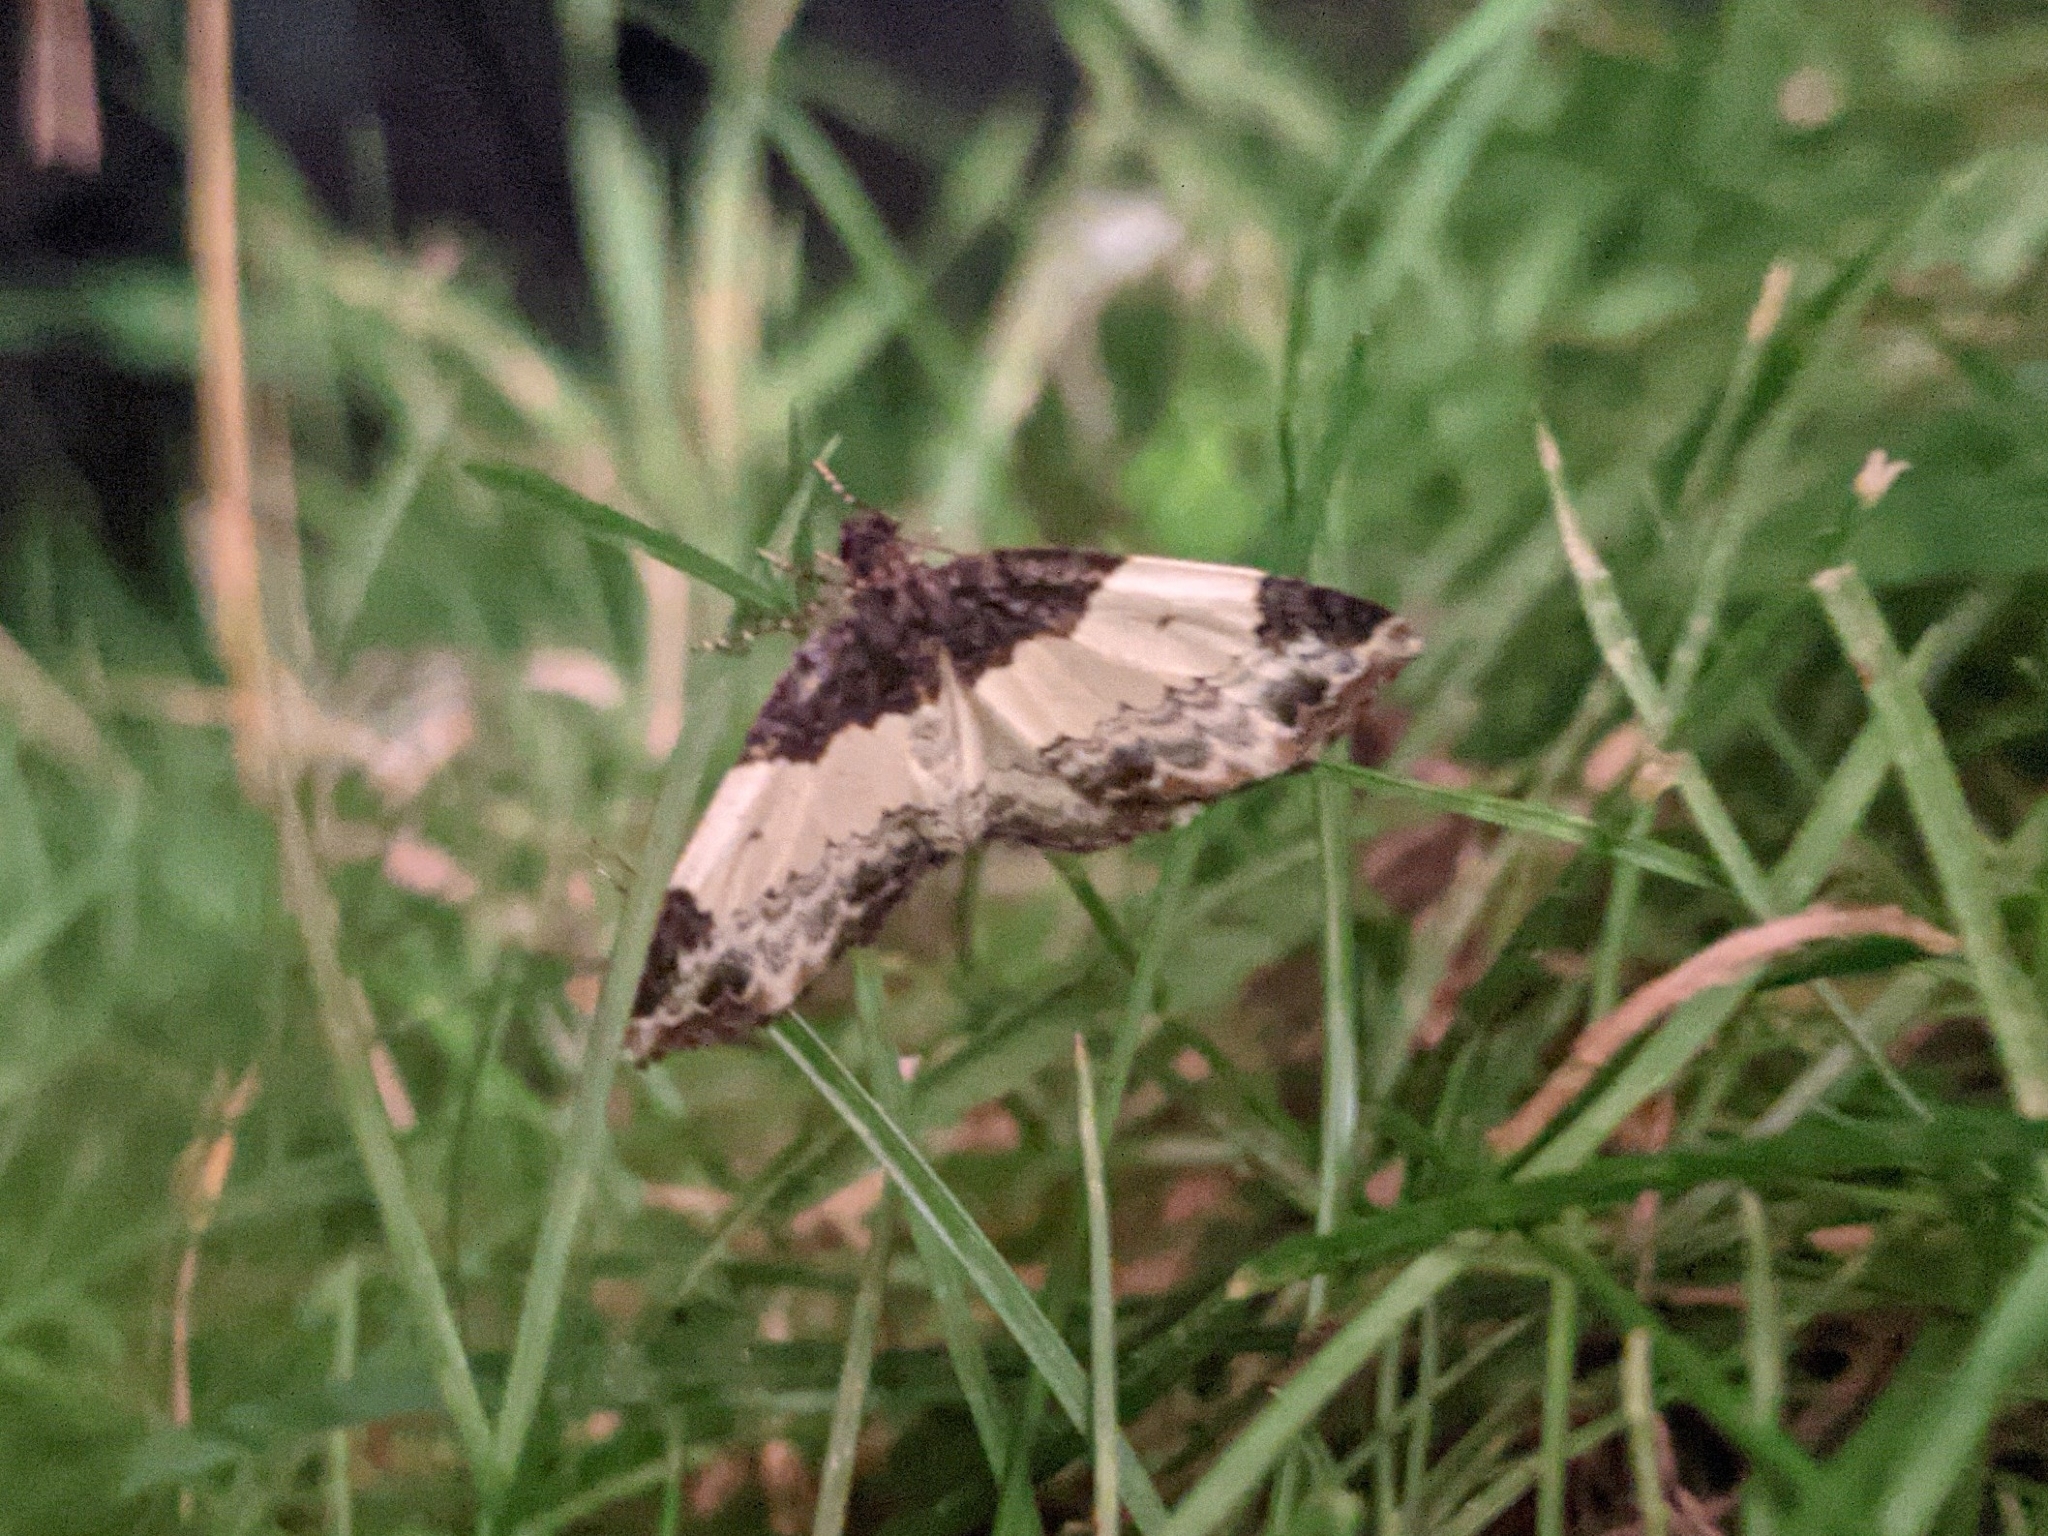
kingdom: Animalia
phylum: Arthropoda
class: Insecta
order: Lepidoptera
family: Geometridae
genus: Mesoleuca
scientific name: Mesoleuca ruficillata
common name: White-ribboned carpet moth
